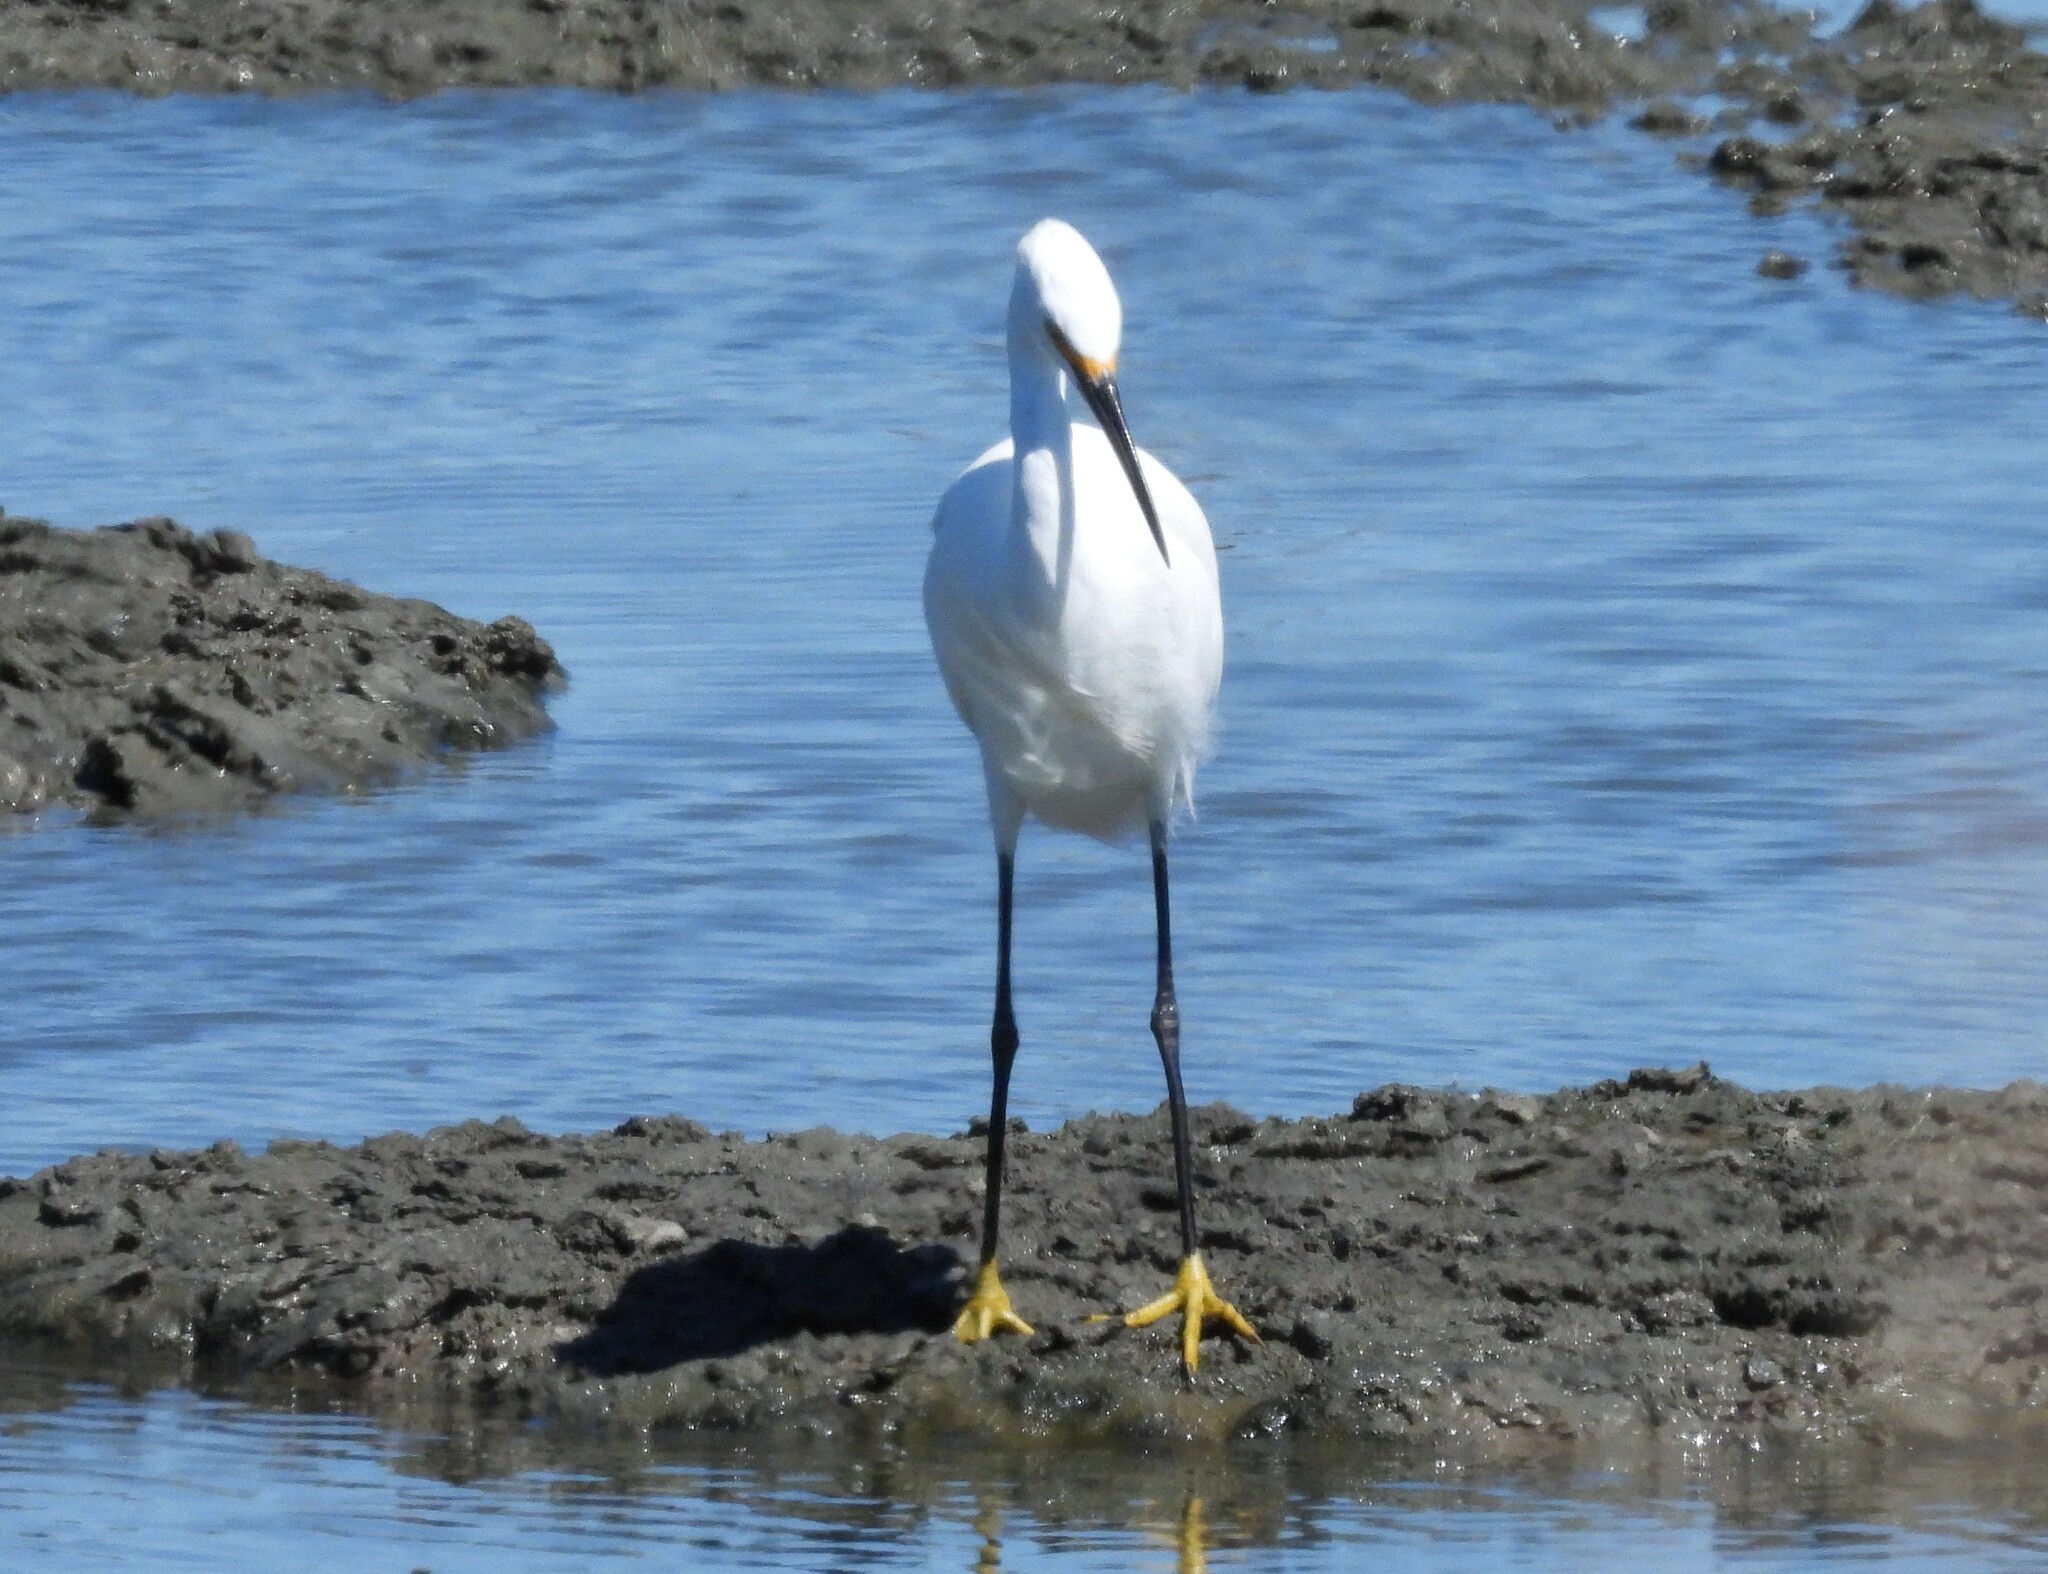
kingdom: Animalia
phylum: Chordata
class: Aves
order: Pelecaniformes
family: Ardeidae
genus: Egretta
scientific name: Egretta thula
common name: Snowy egret
